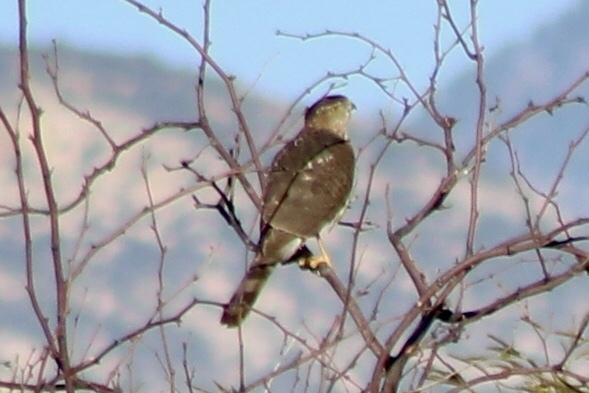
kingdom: Animalia
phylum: Chordata
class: Aves
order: Accipitriformes
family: Accipitridae
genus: Accipiter
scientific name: Accipiter cooperii
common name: Cooper's hawk
